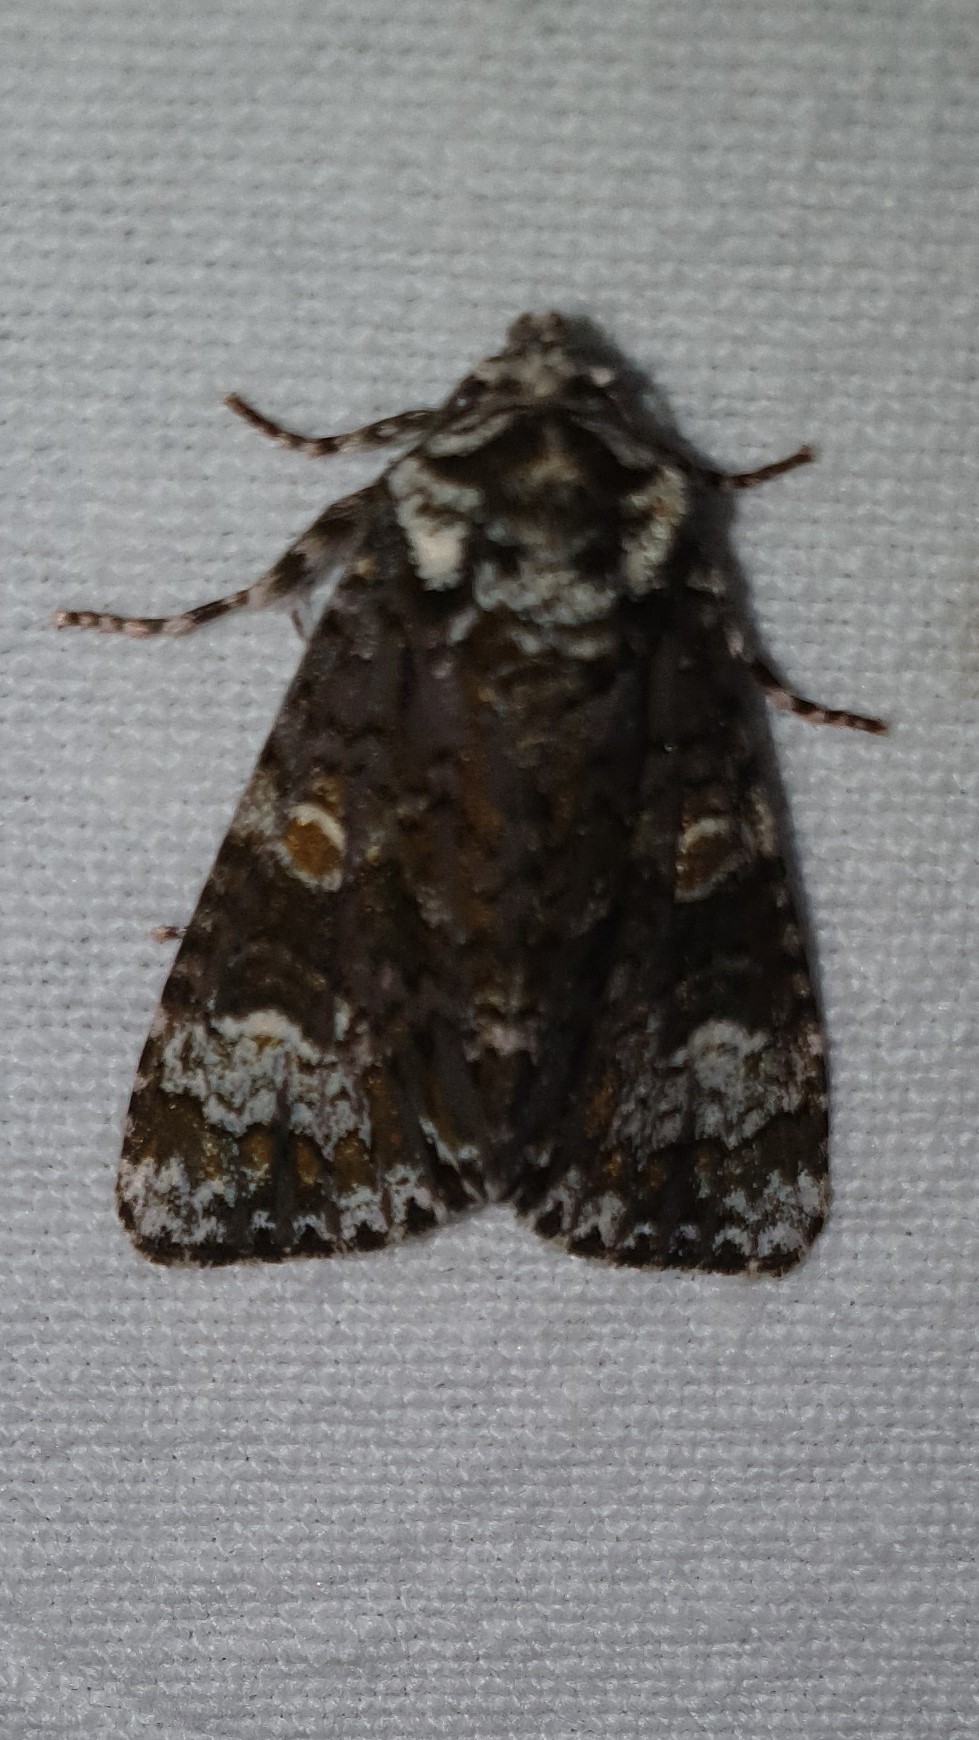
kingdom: Animalia
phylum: Arthropoda
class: Insecta
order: Lepidoptera
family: Noctuidae
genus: Craniophora
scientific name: Craniophora ligustri
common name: Coronet
